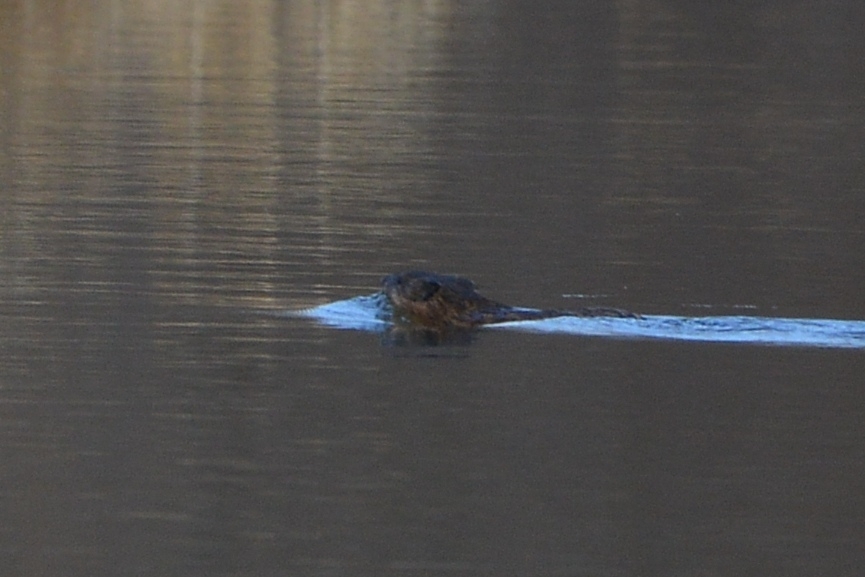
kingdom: Animalia
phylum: Chordata
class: Mammalia
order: Rodentia
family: Cricetidae
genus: Ondatra
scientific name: Ondatra zibethicus
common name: Muskrat
